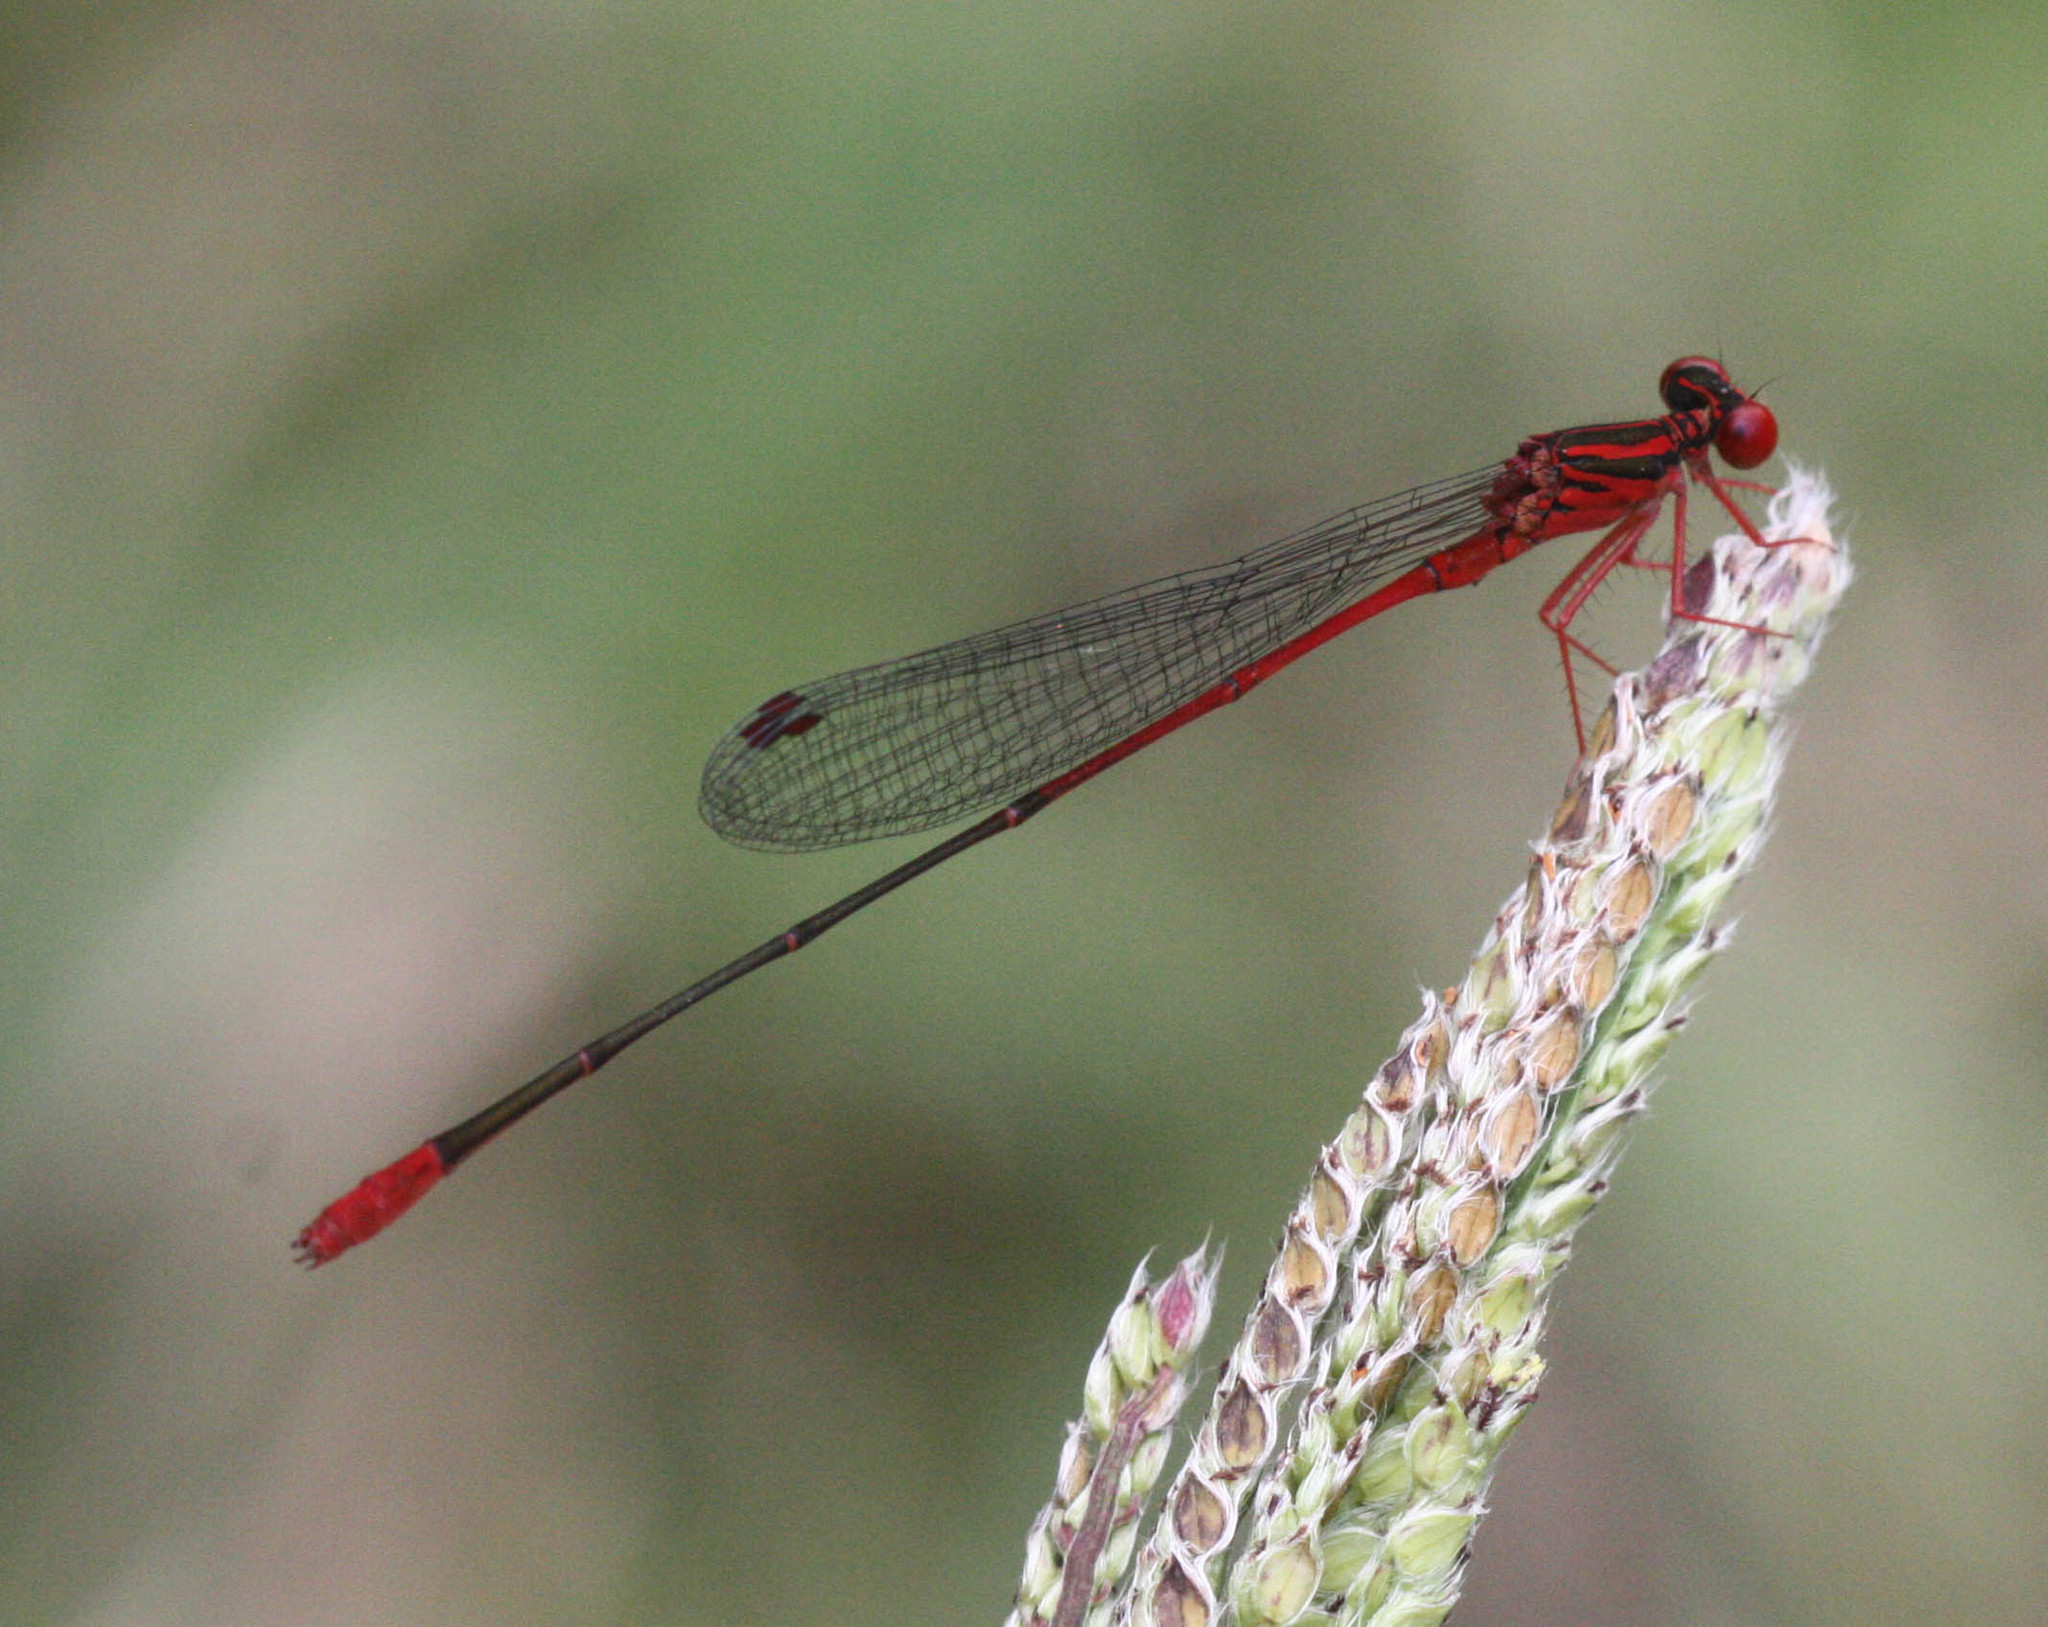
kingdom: Animalia
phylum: Arthropoda
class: Insecta
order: Odonata
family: Coenagrionidae
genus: Megalagrion
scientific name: Megalagrion oresitrophum
